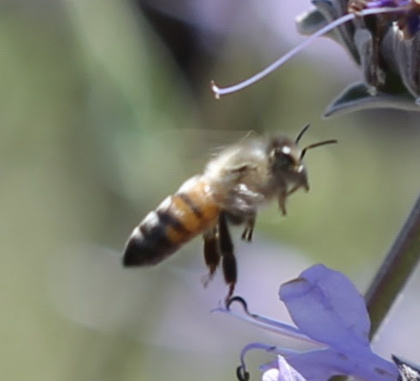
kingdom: Animalia
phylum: Arthropoda
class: Insecta
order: Hymenoptera
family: Apidae
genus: Apis
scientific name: Apis mellifera
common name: Honey bee
